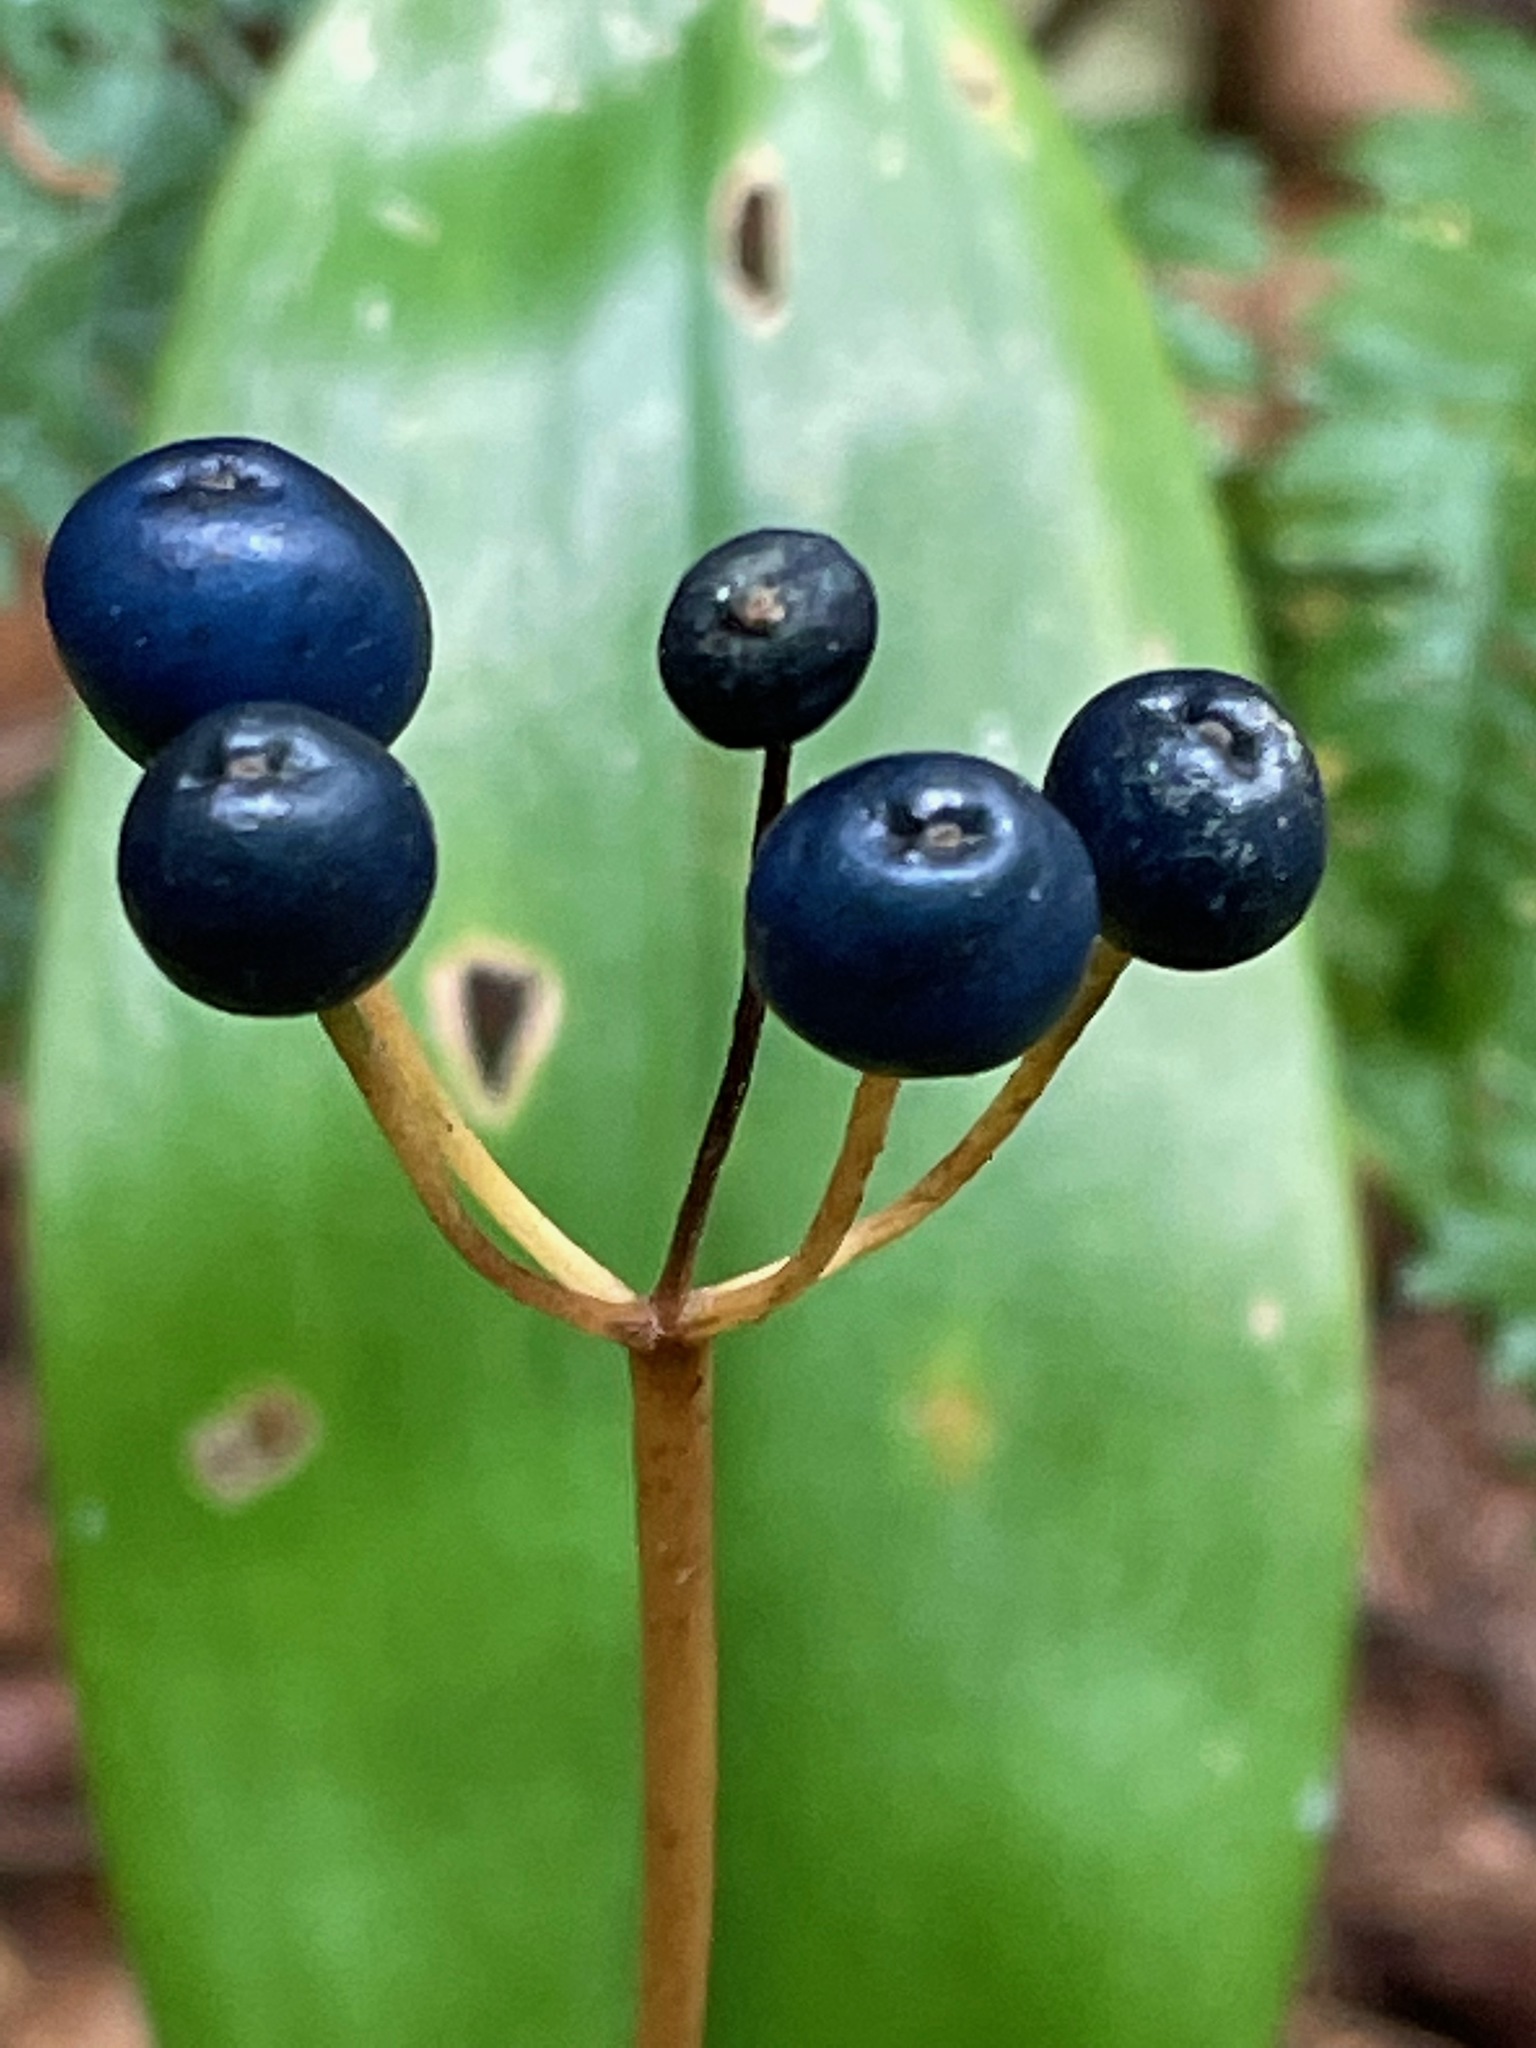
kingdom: Plantae
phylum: Tracheophyta
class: Liliopsida
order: Liliales
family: Liliaceae
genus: Clintonia
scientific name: Clintonia borealis
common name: Yellow clintonia
